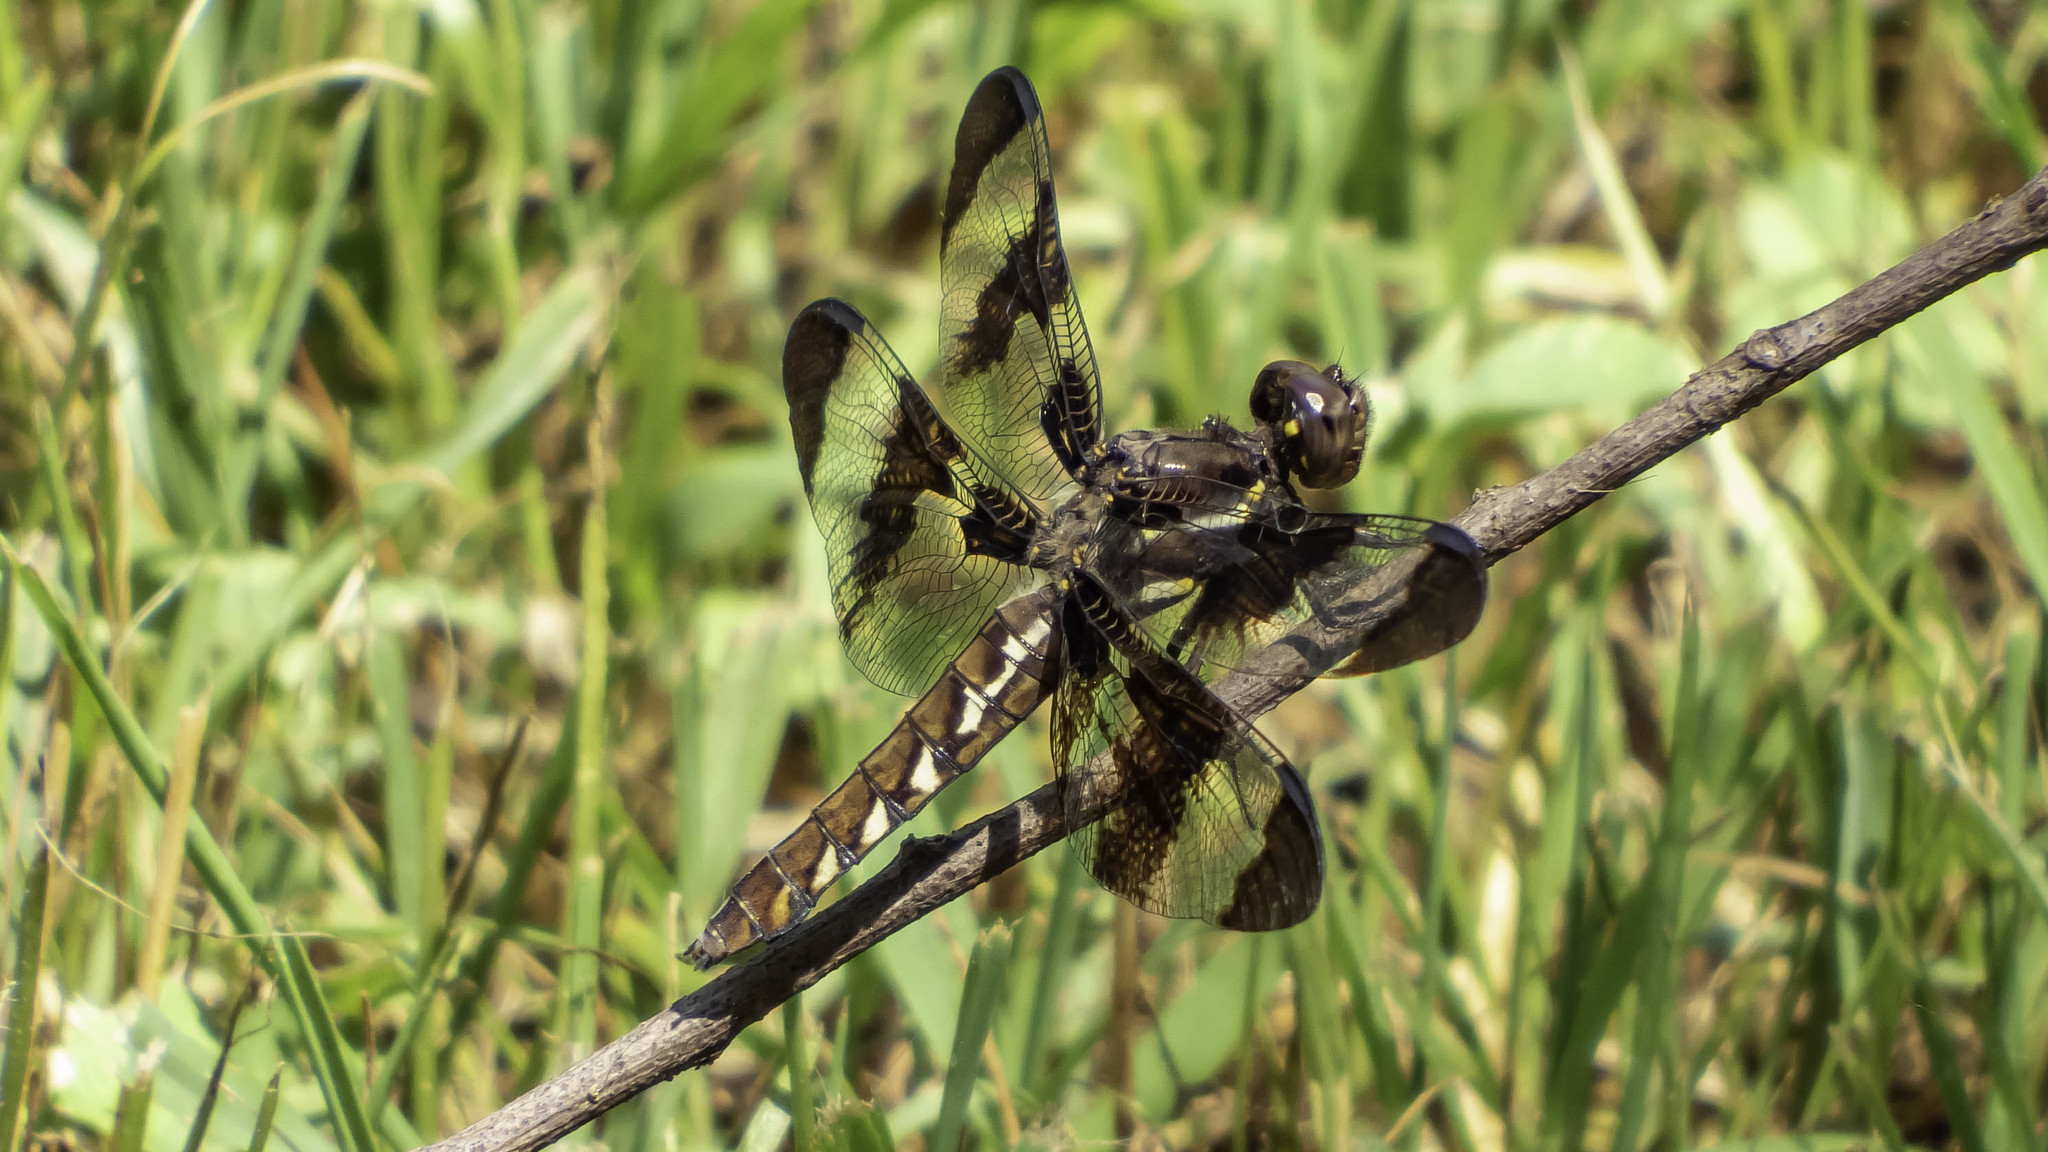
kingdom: Animalia
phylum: Arthropoda
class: Insecta
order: Odonata
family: Libellulidae
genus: Plathemis
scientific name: Plathemis lydia
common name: Common whitetail
